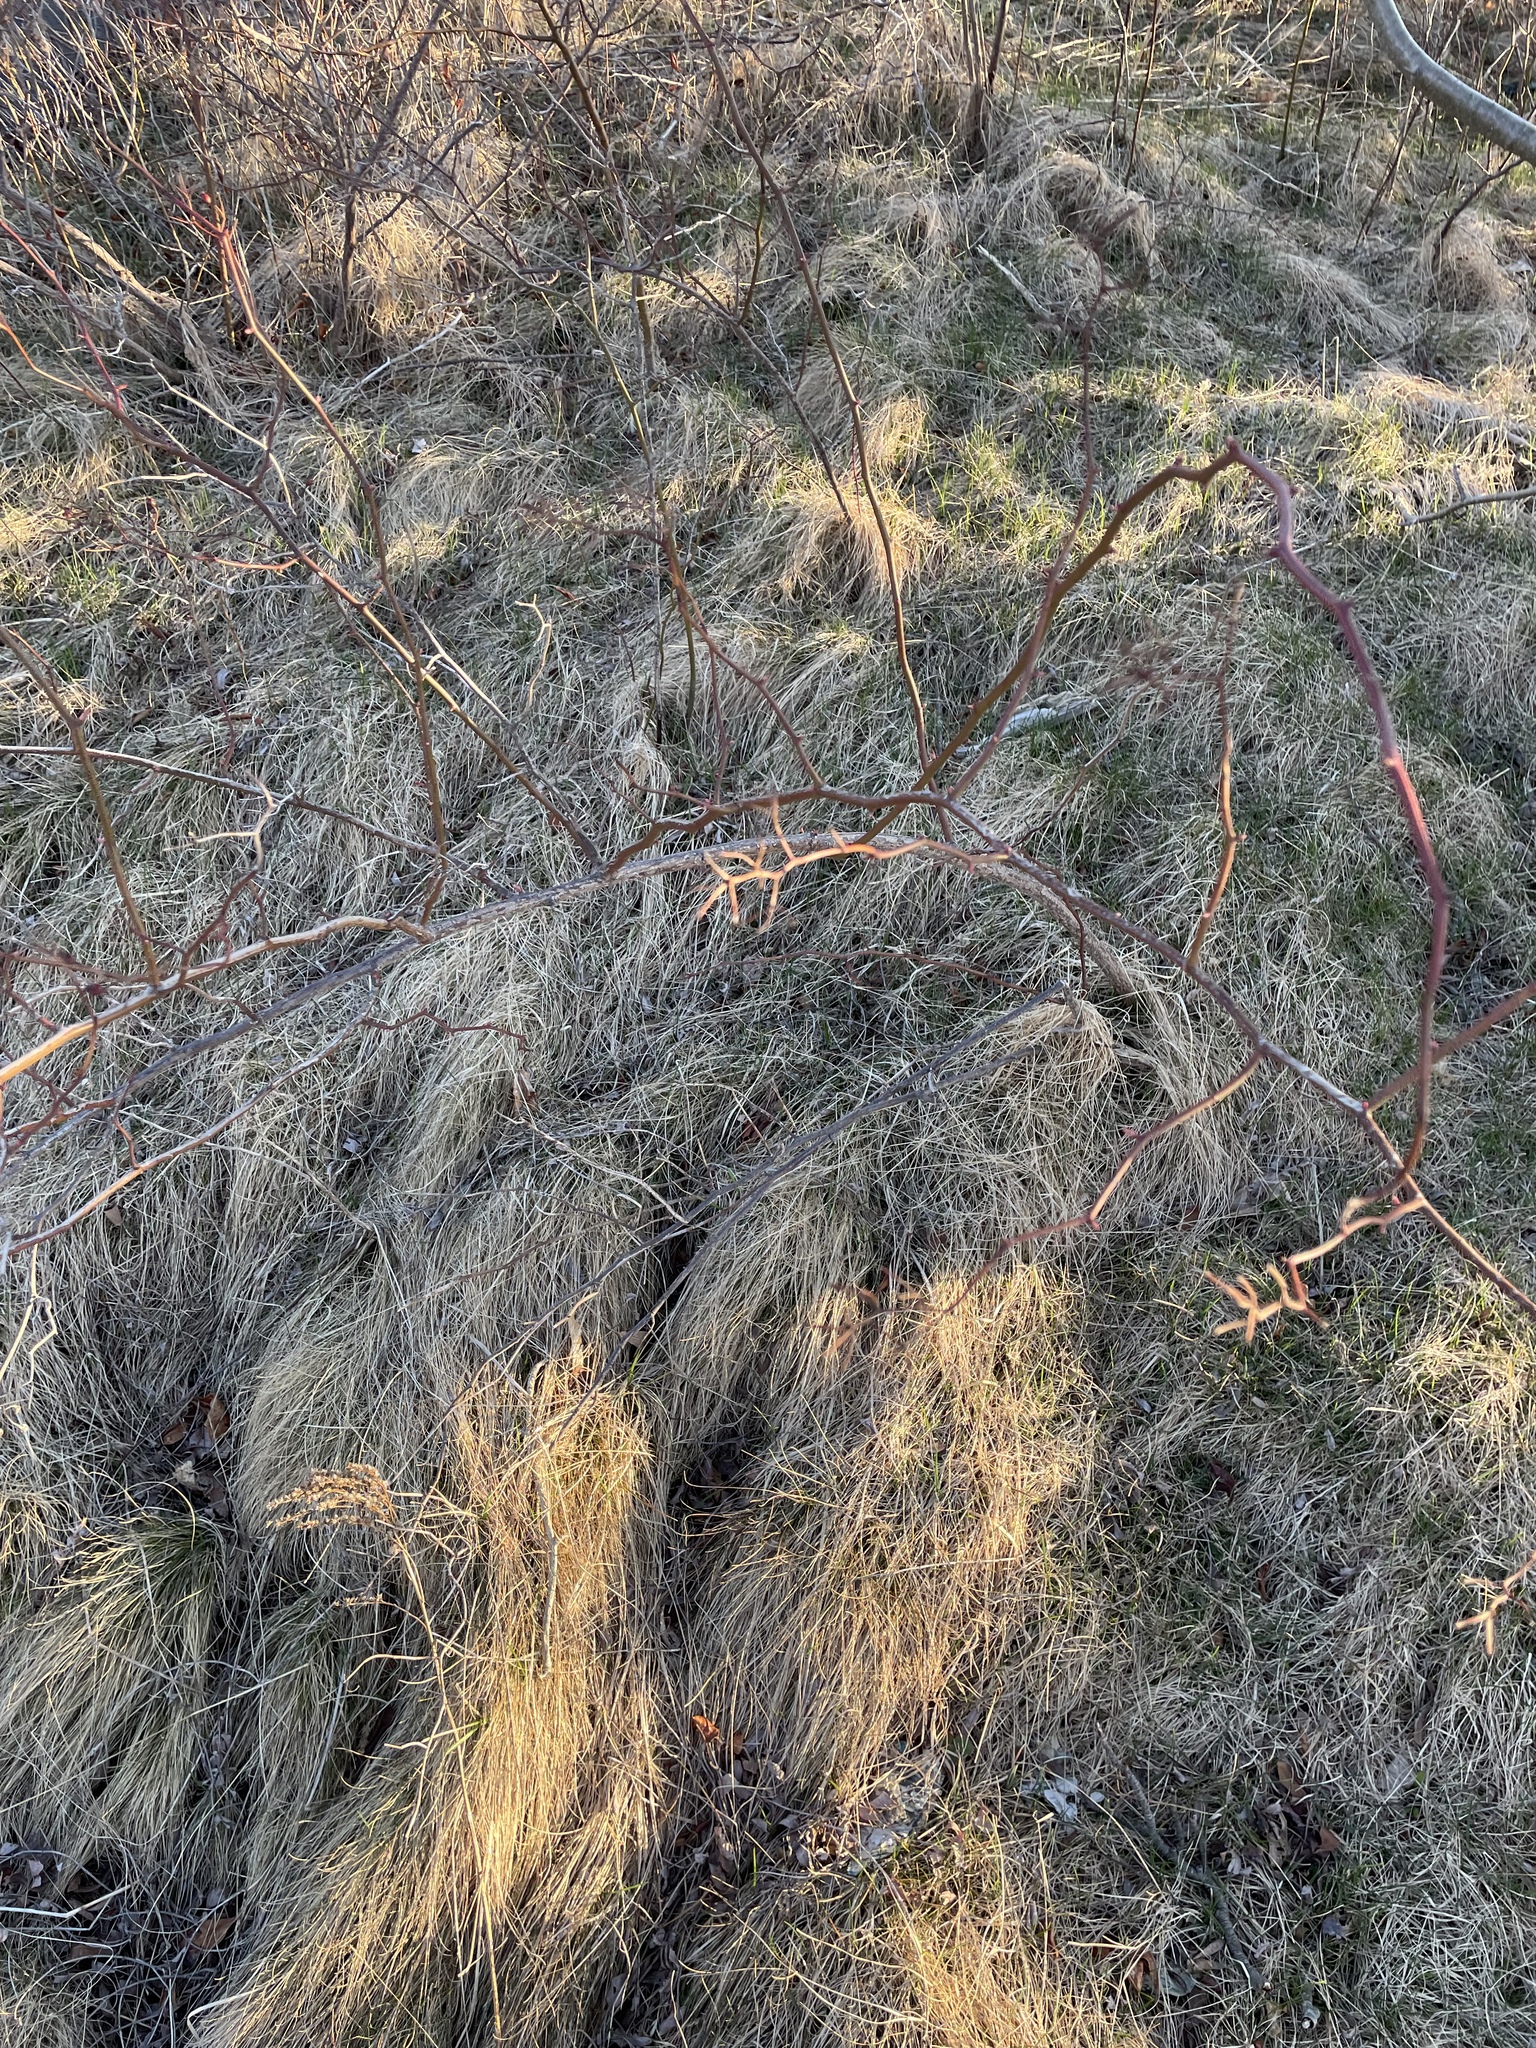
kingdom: Plantae
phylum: Tracheophyta
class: Magnoliopsida
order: Rosales
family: Rosaceae
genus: Rosa
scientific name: Rosa multiflora
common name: Multiflora rose
